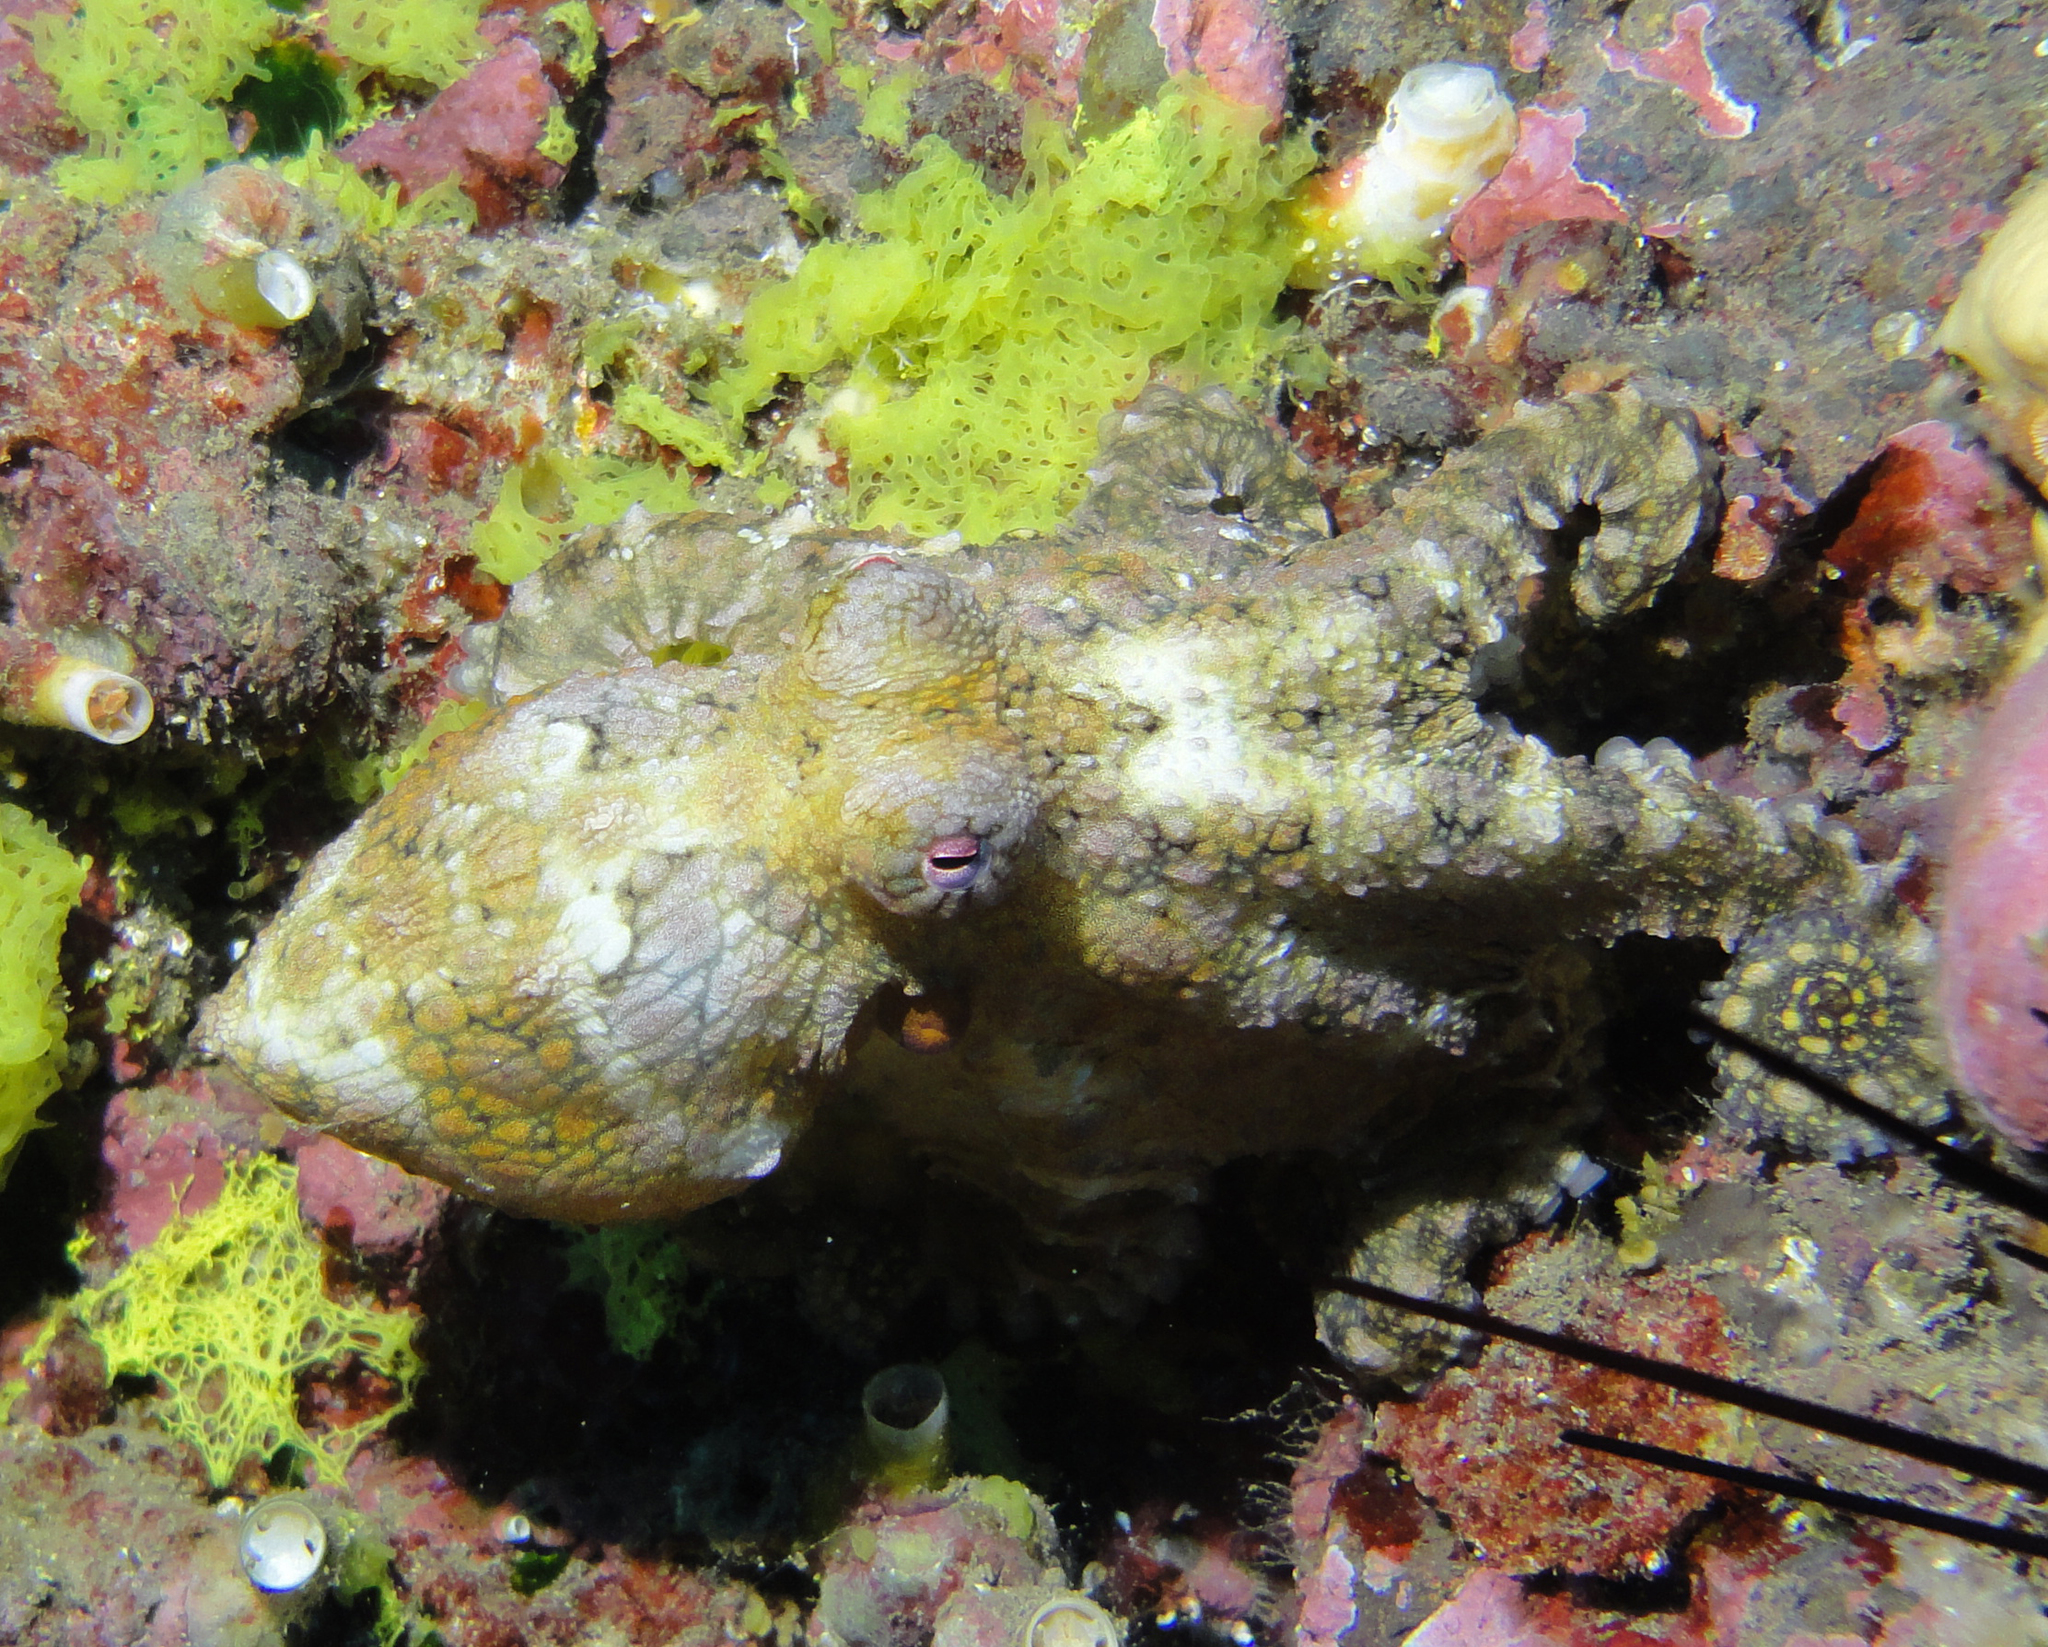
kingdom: Animalia
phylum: Mollusca
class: Cephalopoda
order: Octopoda
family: Octopodidae
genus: Octopus
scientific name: Octopus
